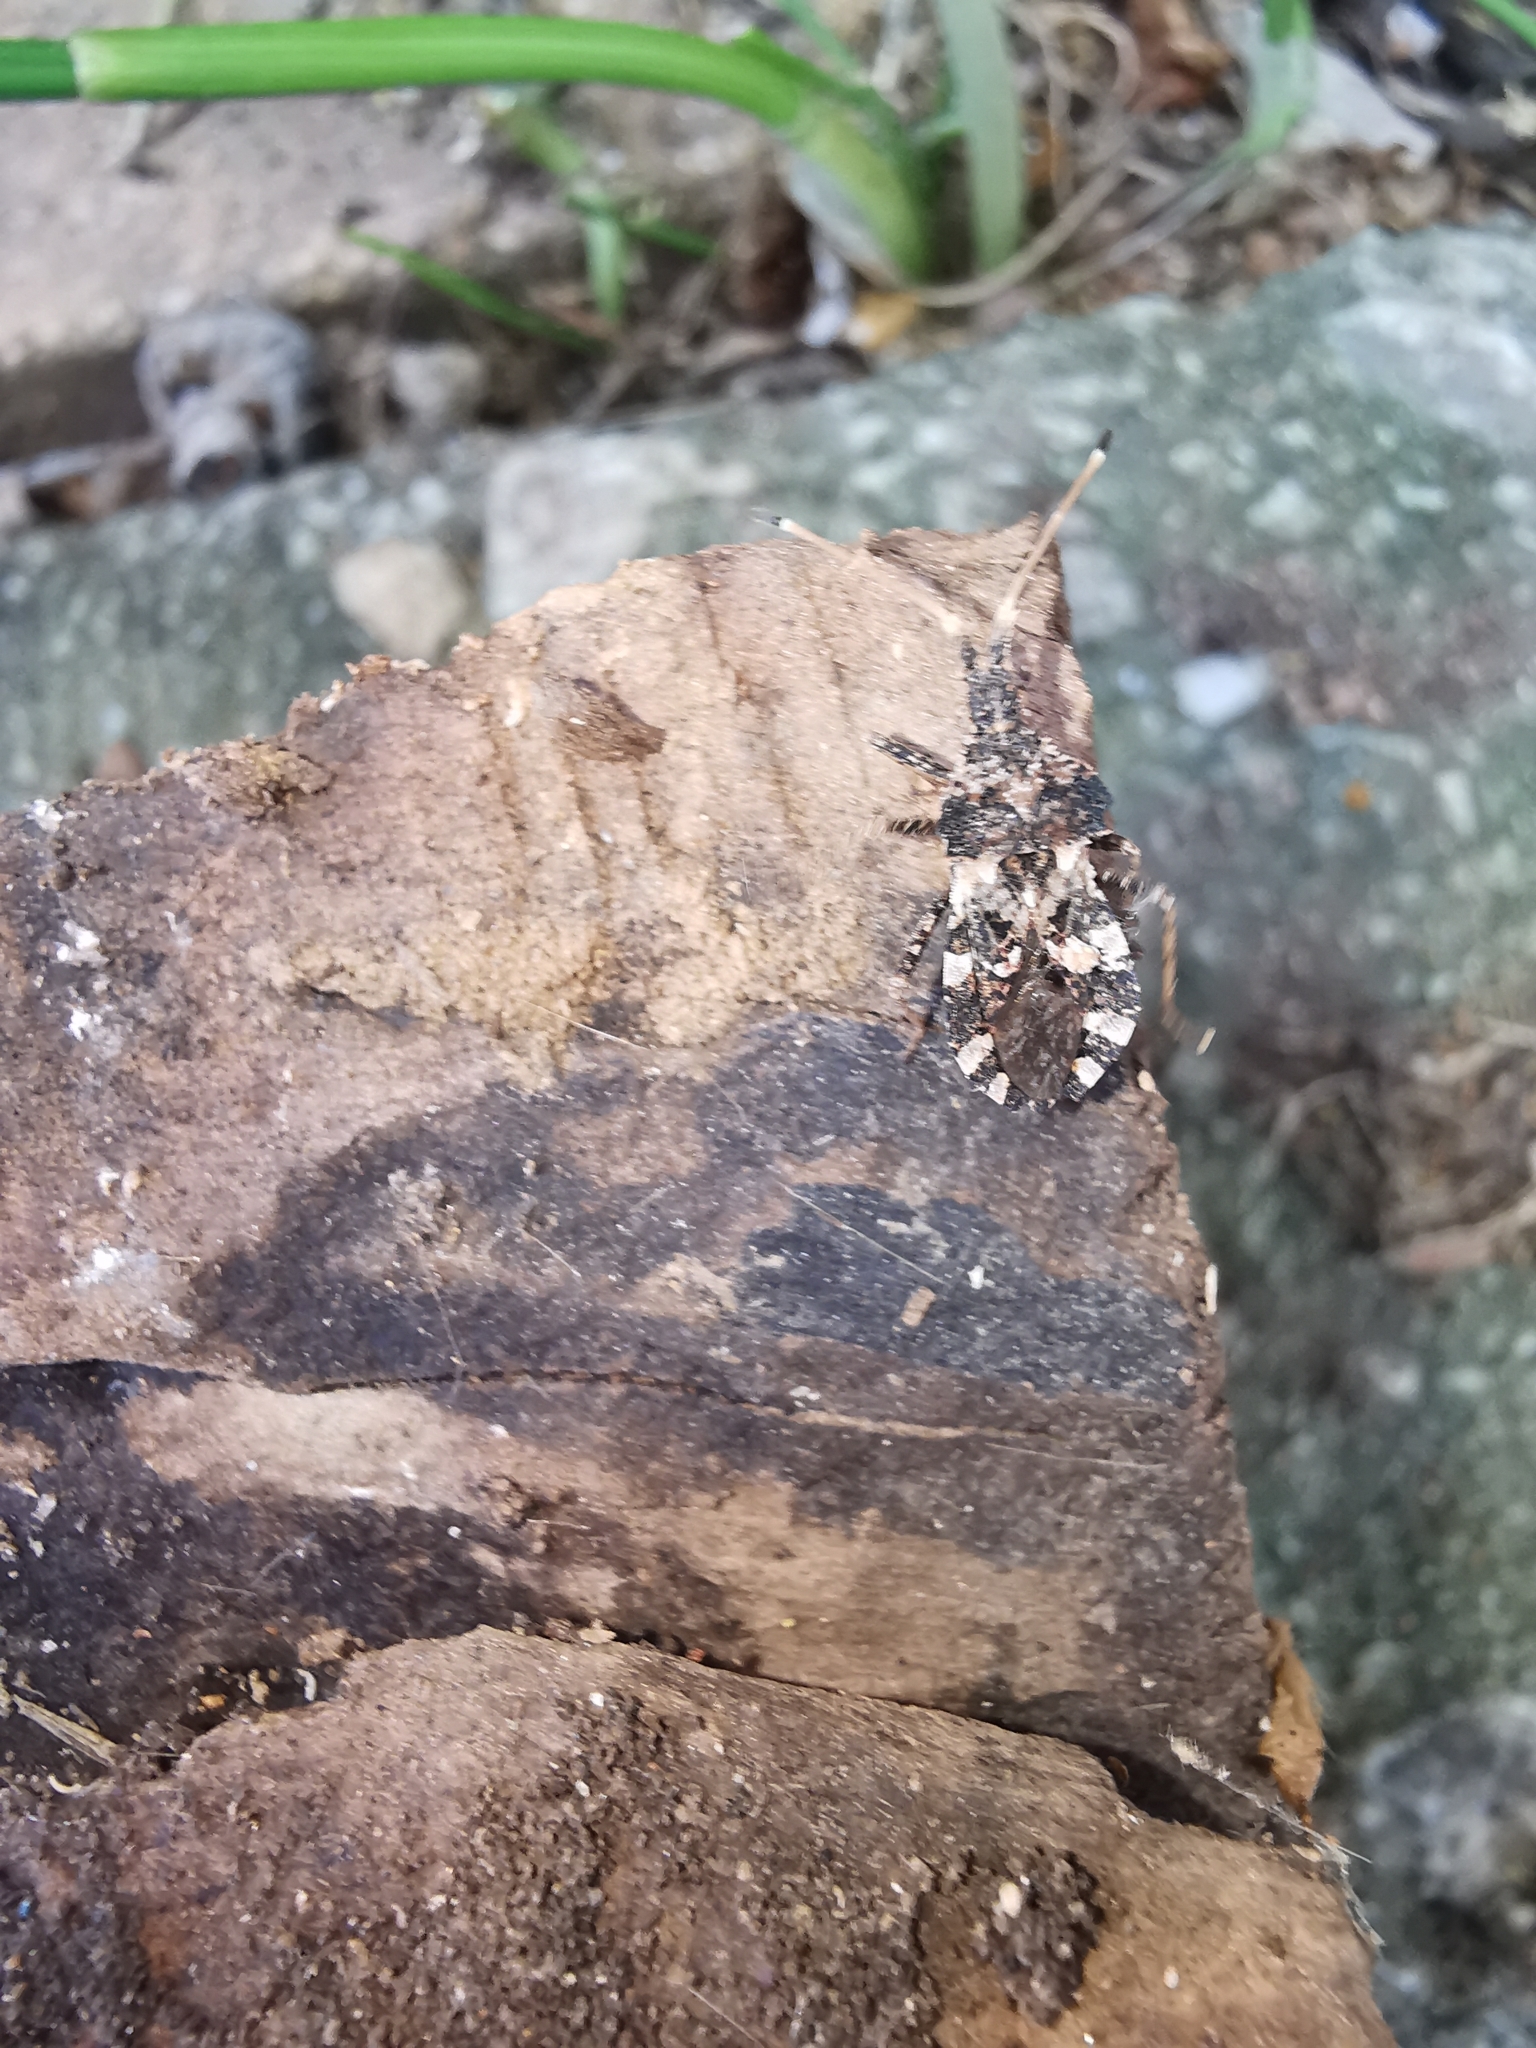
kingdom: Animalia
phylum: Arthropoda
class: Insecta
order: Hemiptera
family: Coreidae
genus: Centrocoris
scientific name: Centrocoris variegatus
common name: Leaf-footed bug
